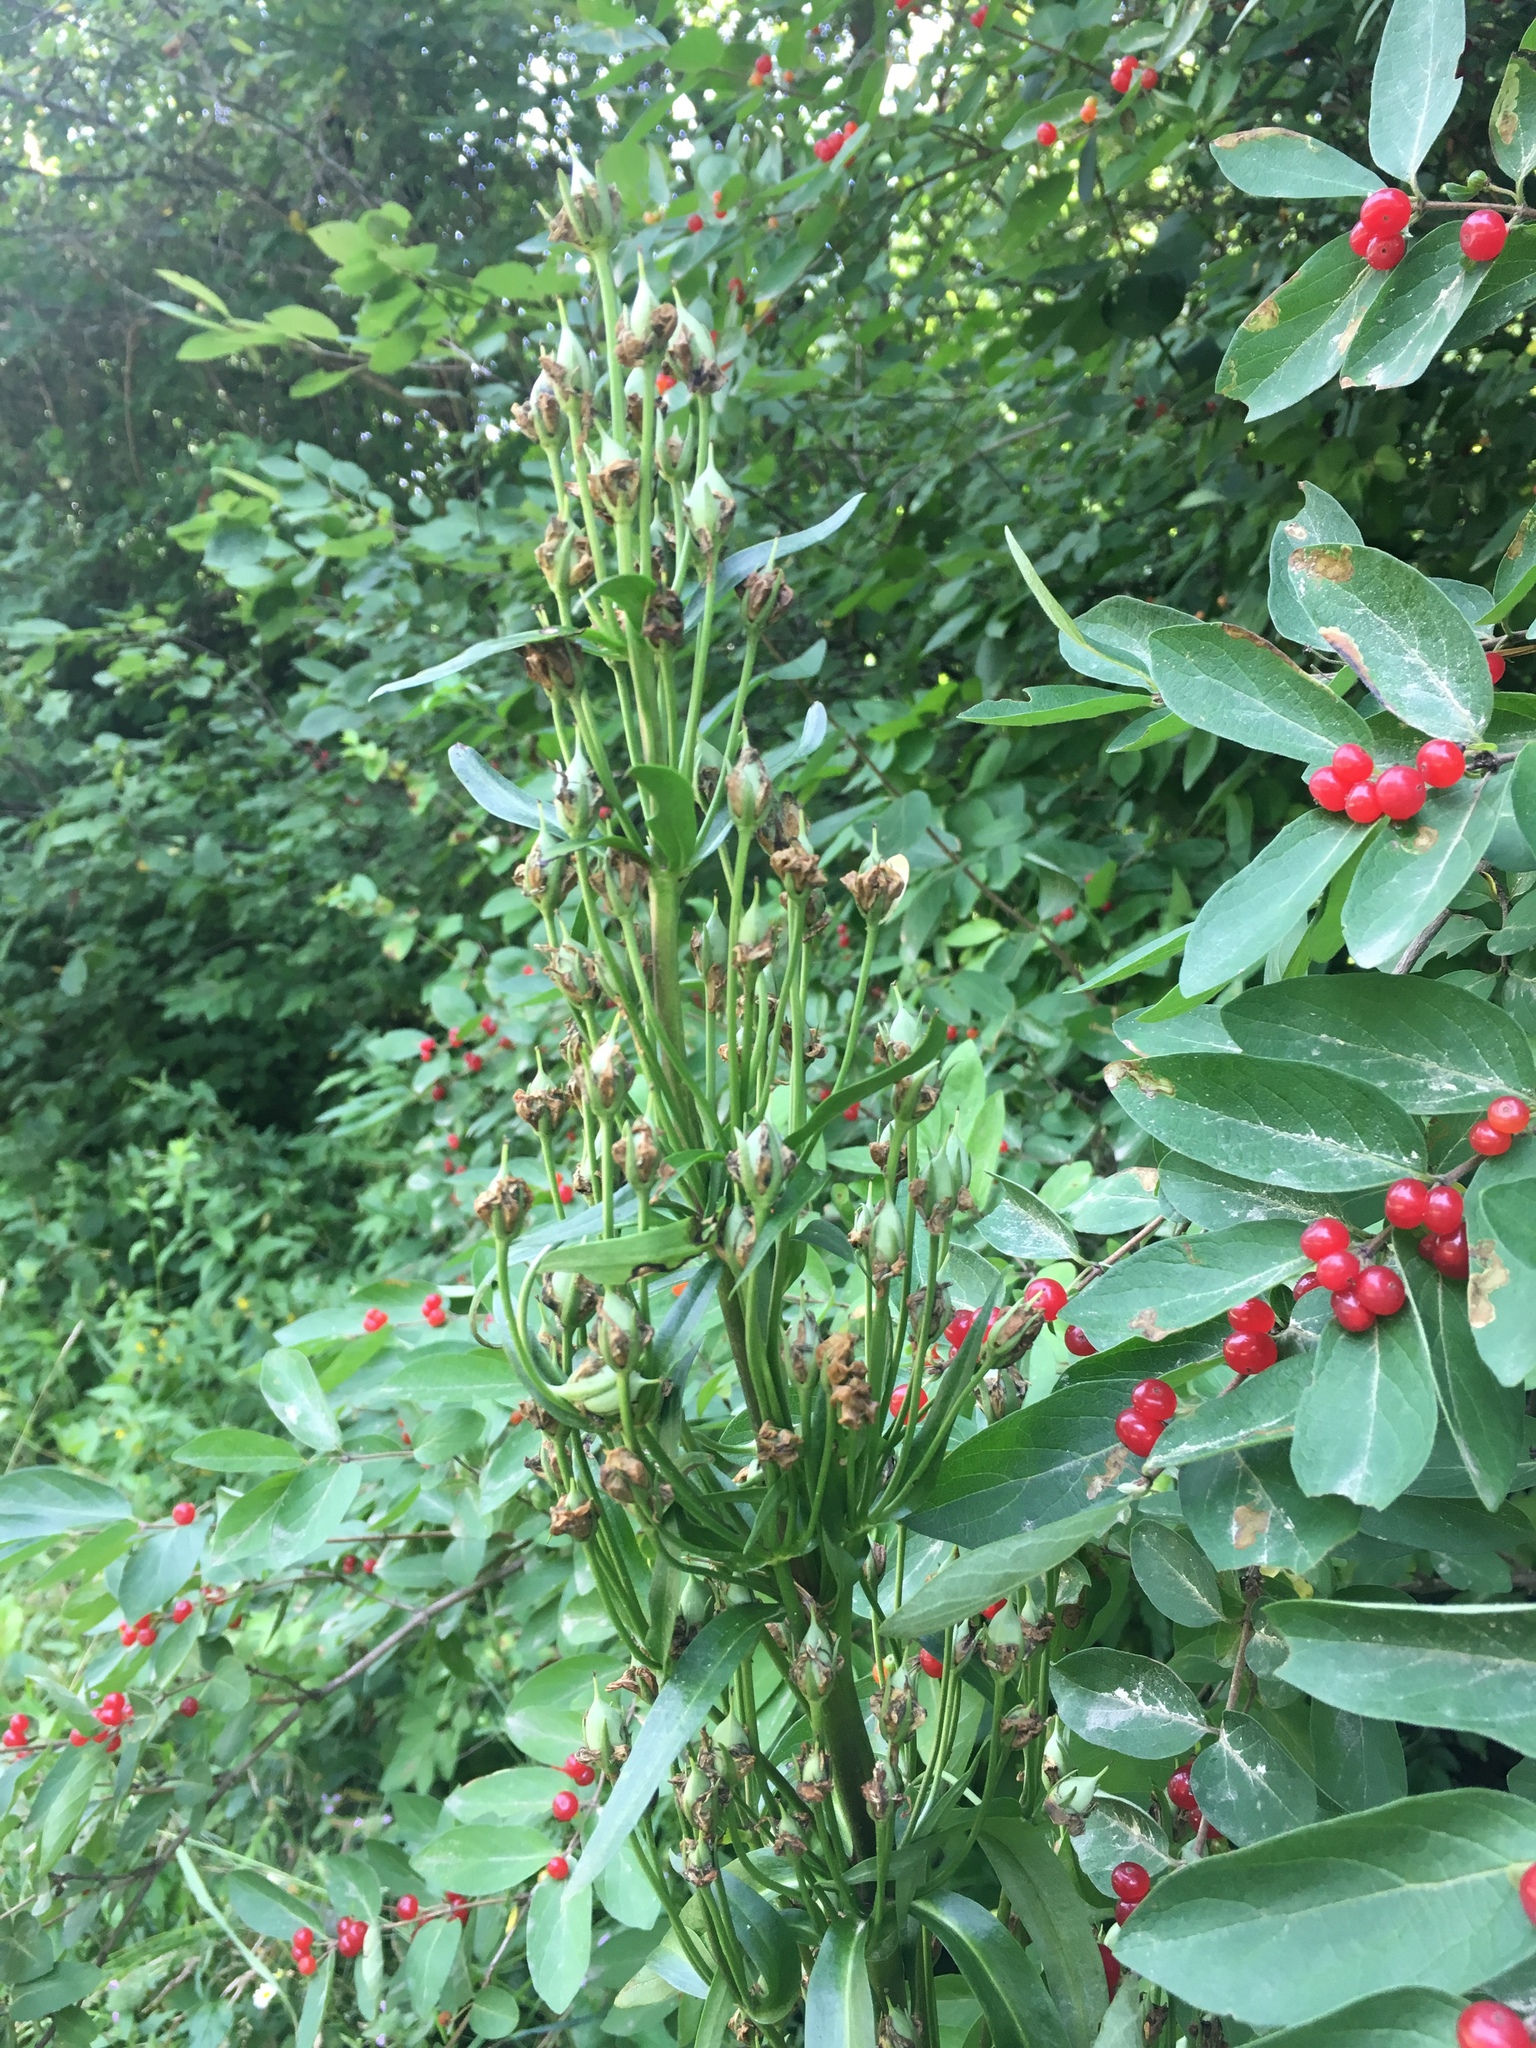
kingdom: Plantae
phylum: Tracheophyta
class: Magnoliopsida
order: Gentianales
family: Gentianaceae
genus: Frasera
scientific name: Frasera caroliniensis
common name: American columbo
